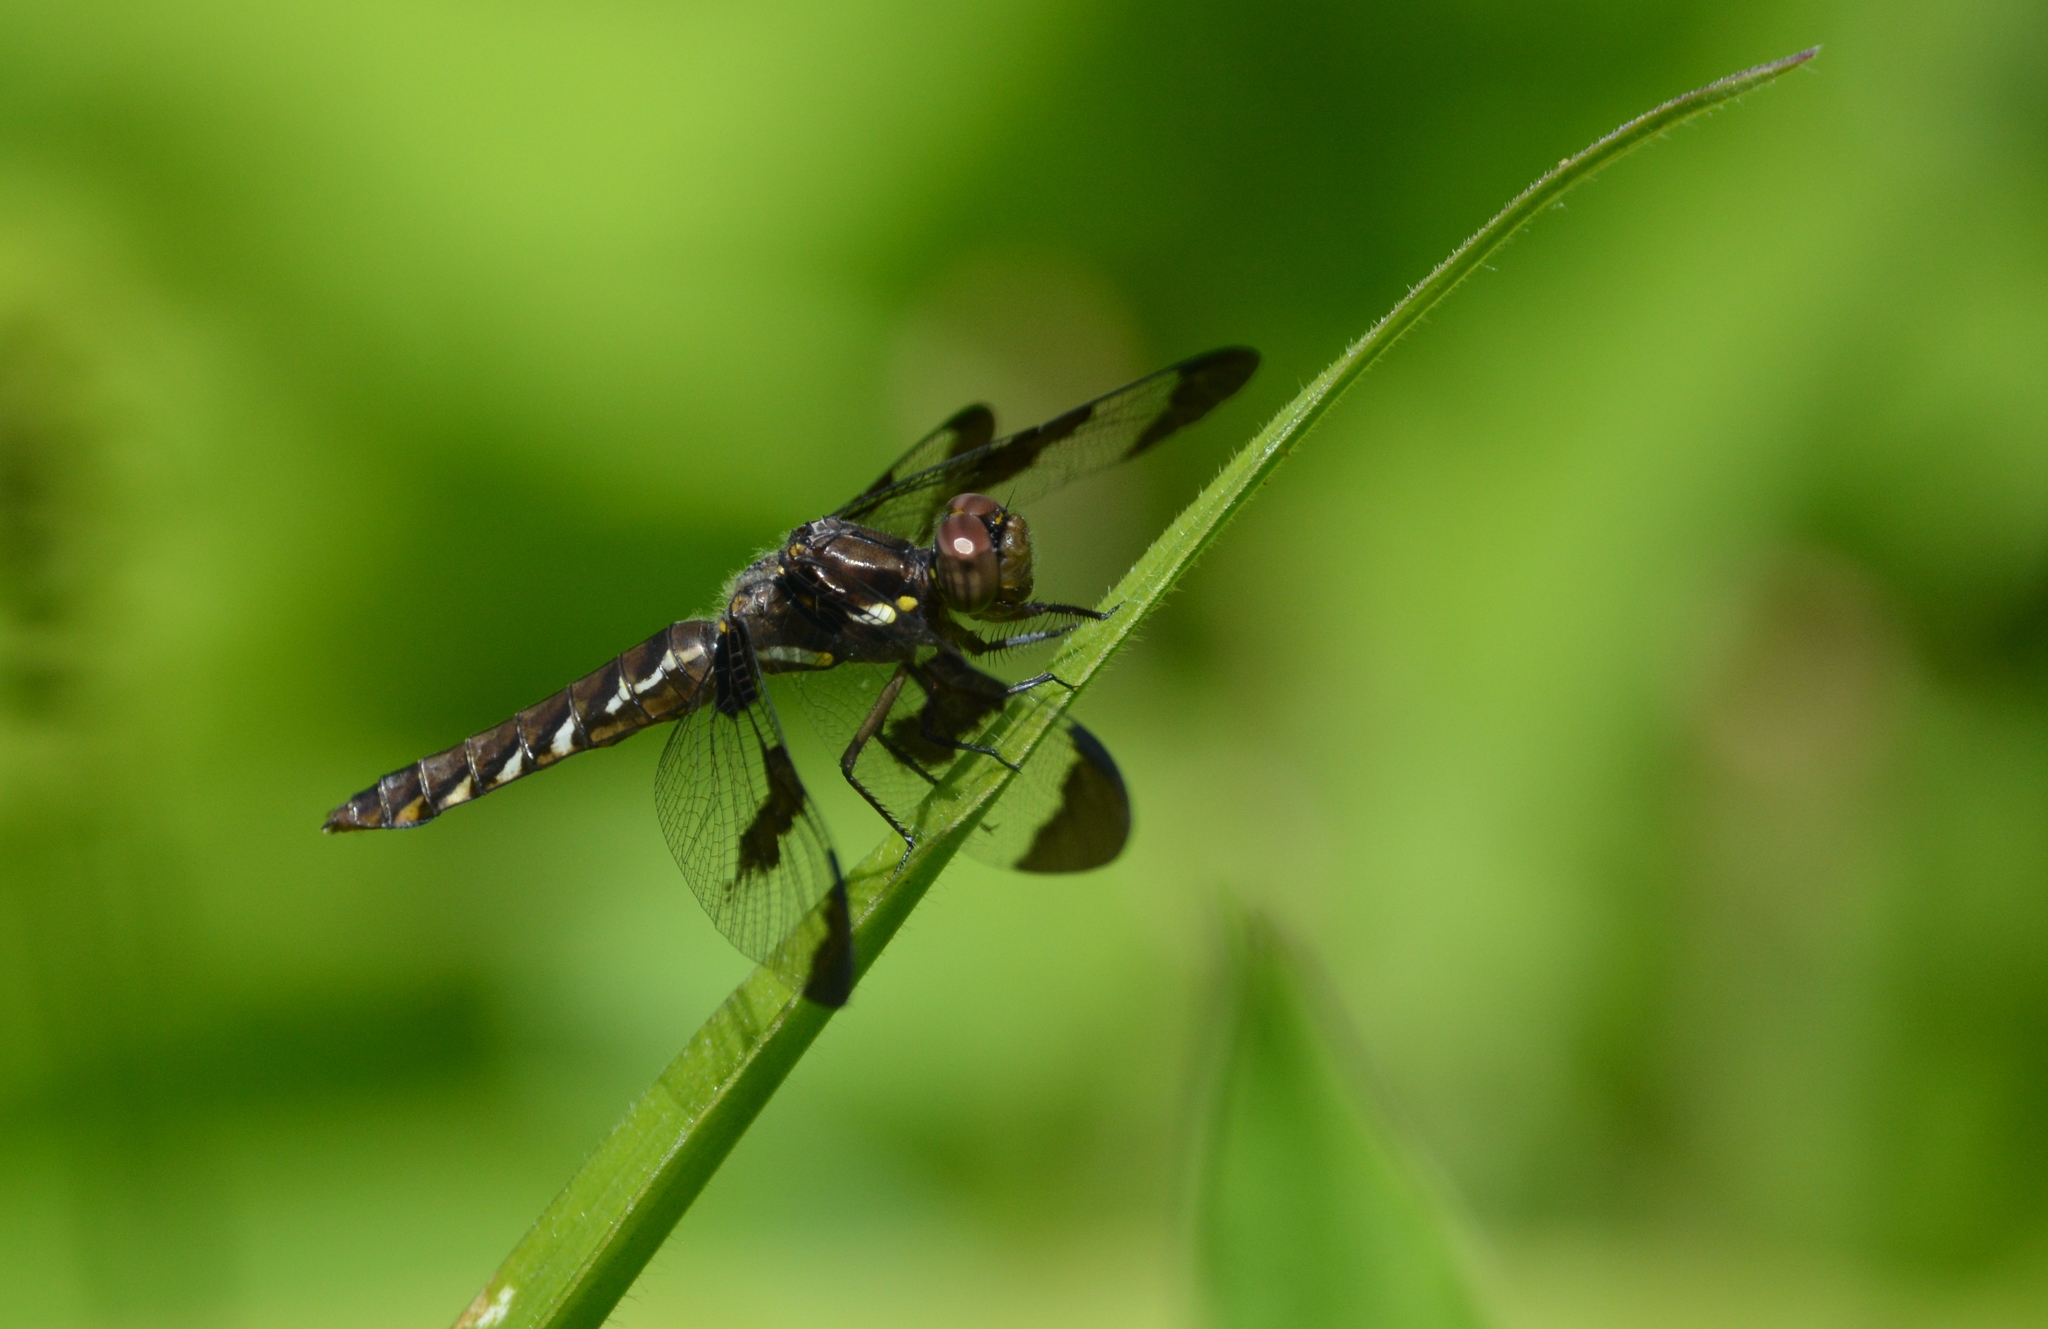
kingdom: Animalia
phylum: Arthropoda
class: Insecta
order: Odonata
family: Libellulidae
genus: Plathemis
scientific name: Plathemis lydia
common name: Common whitetail
